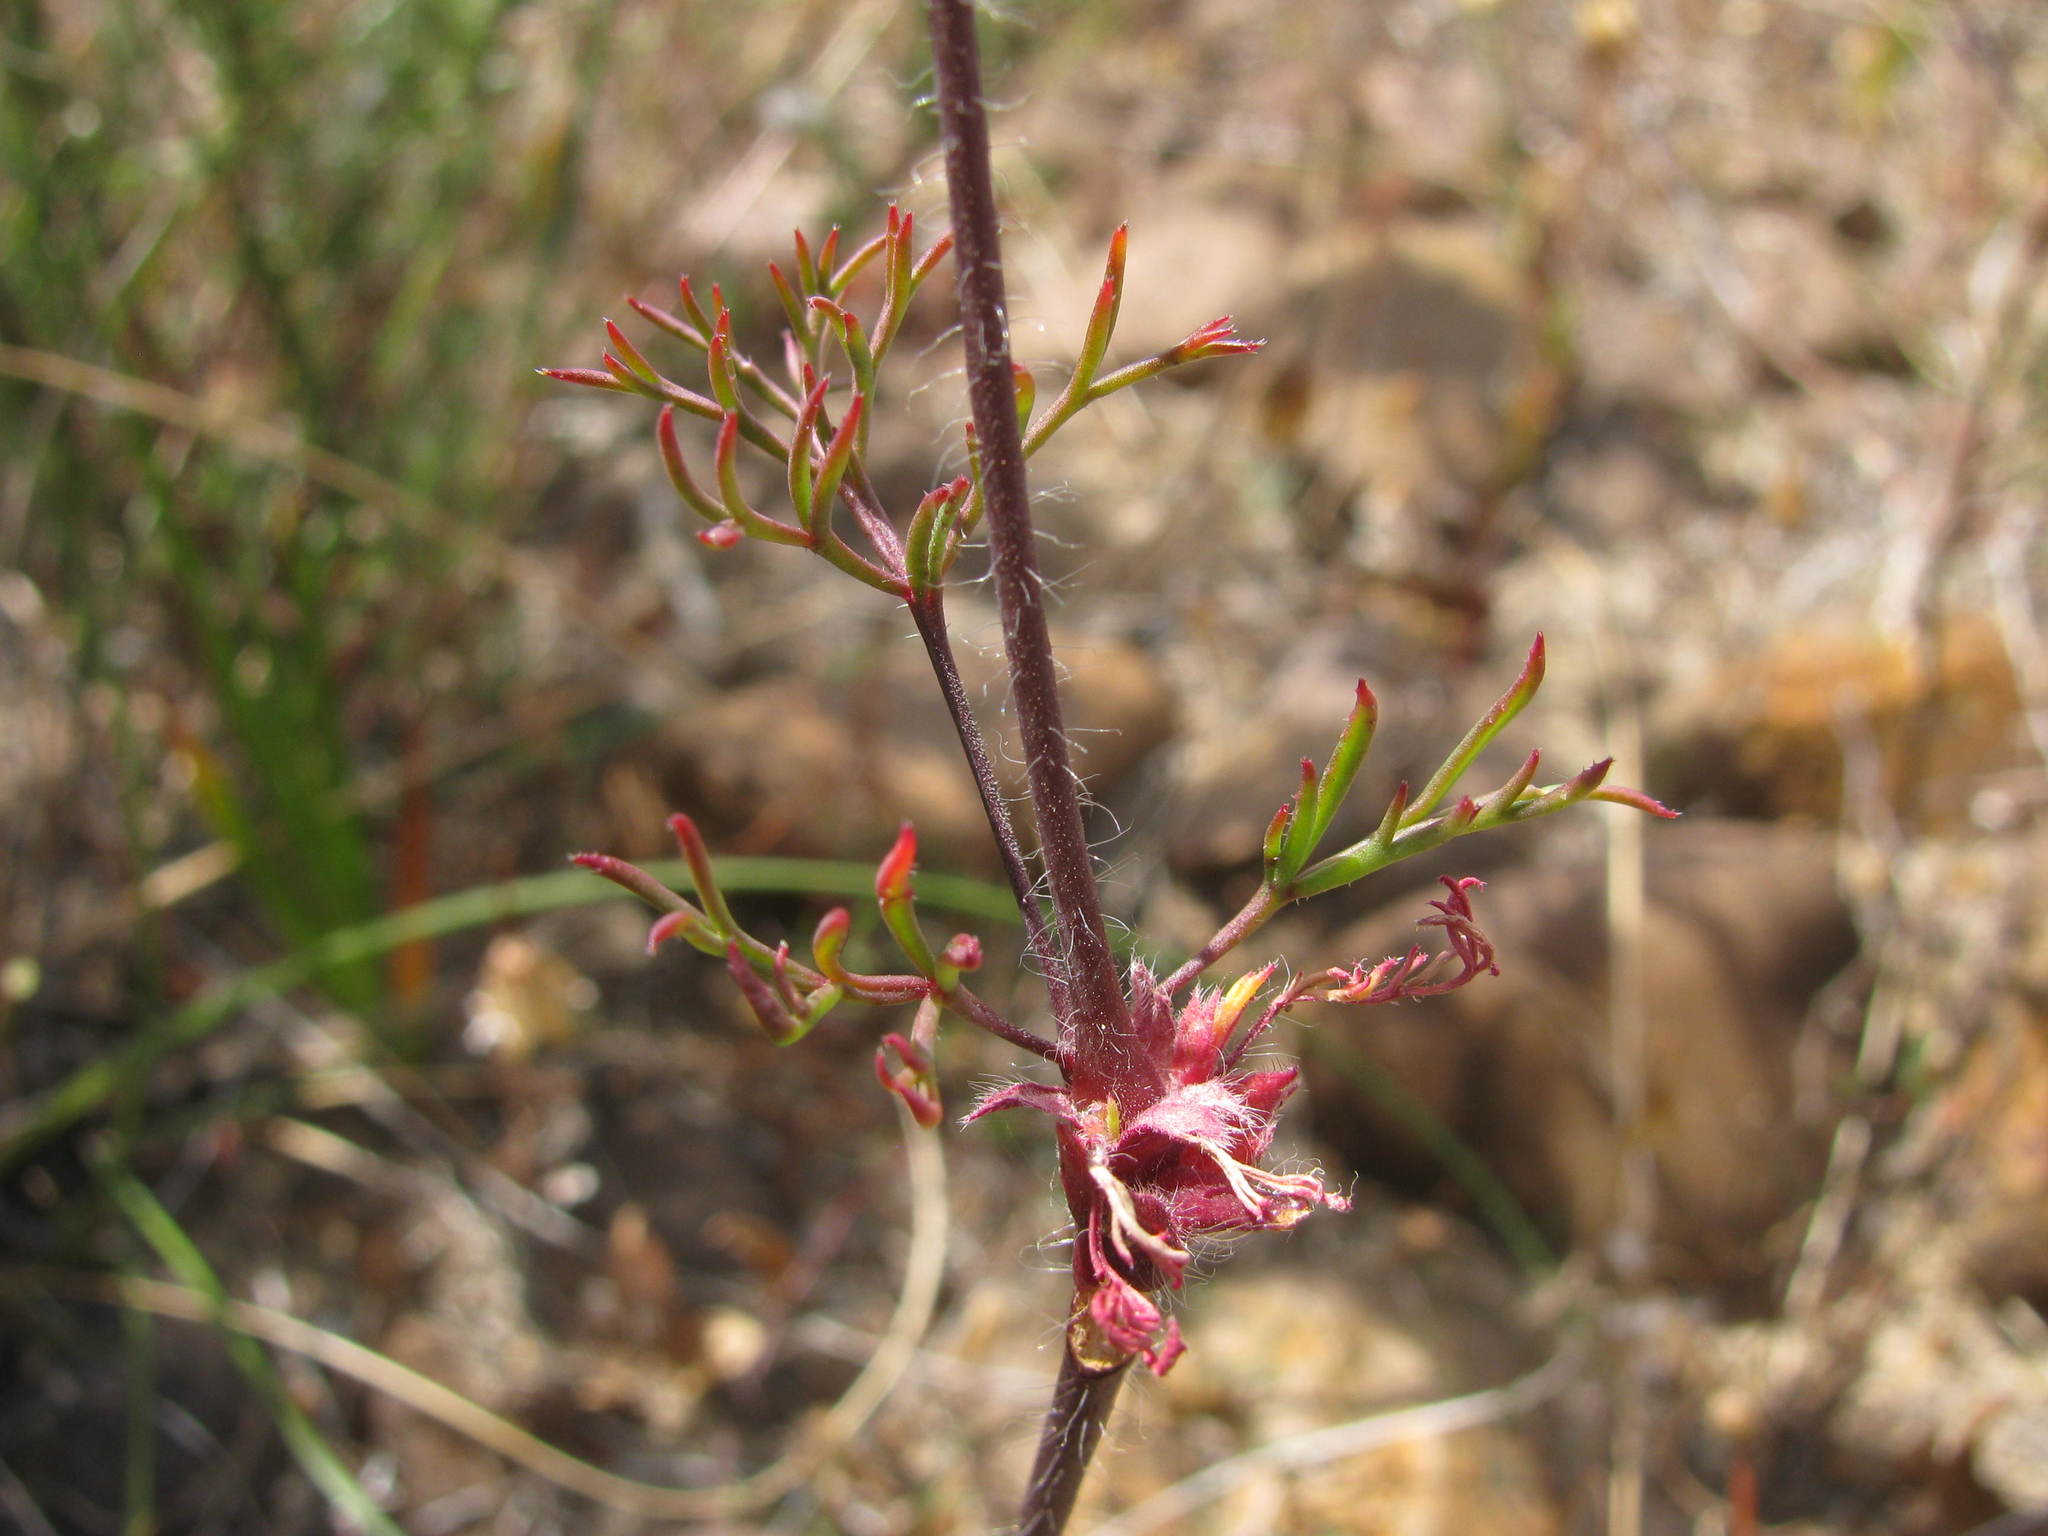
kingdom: Plantae
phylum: Tracheophyta
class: Magnoliopsida
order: Geraniales
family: Geraniaceae
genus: Pelargonium
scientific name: Pelargonium anethifolium
